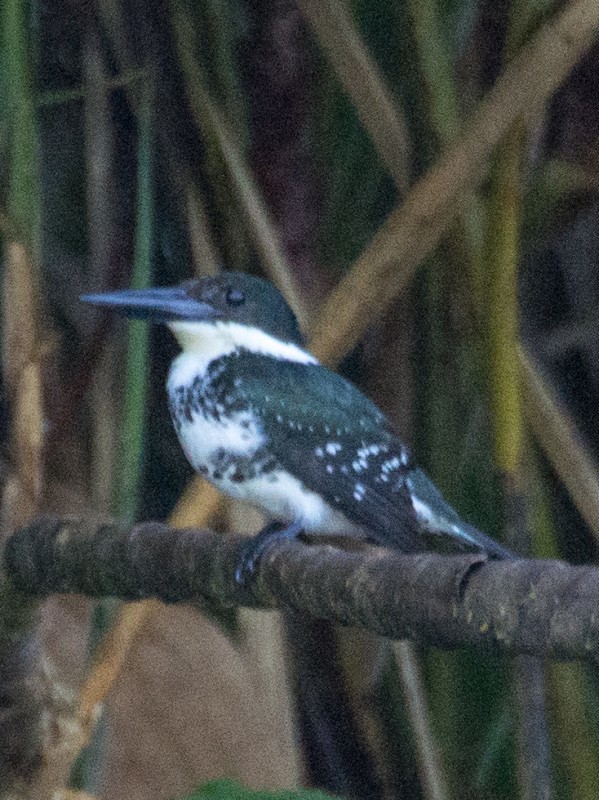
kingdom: Animalia
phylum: Chordata
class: Aves
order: Coraciiformes
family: Alcedinidae
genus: Chloroceryle
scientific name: Chloroceryle americana
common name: Green kingfisher
